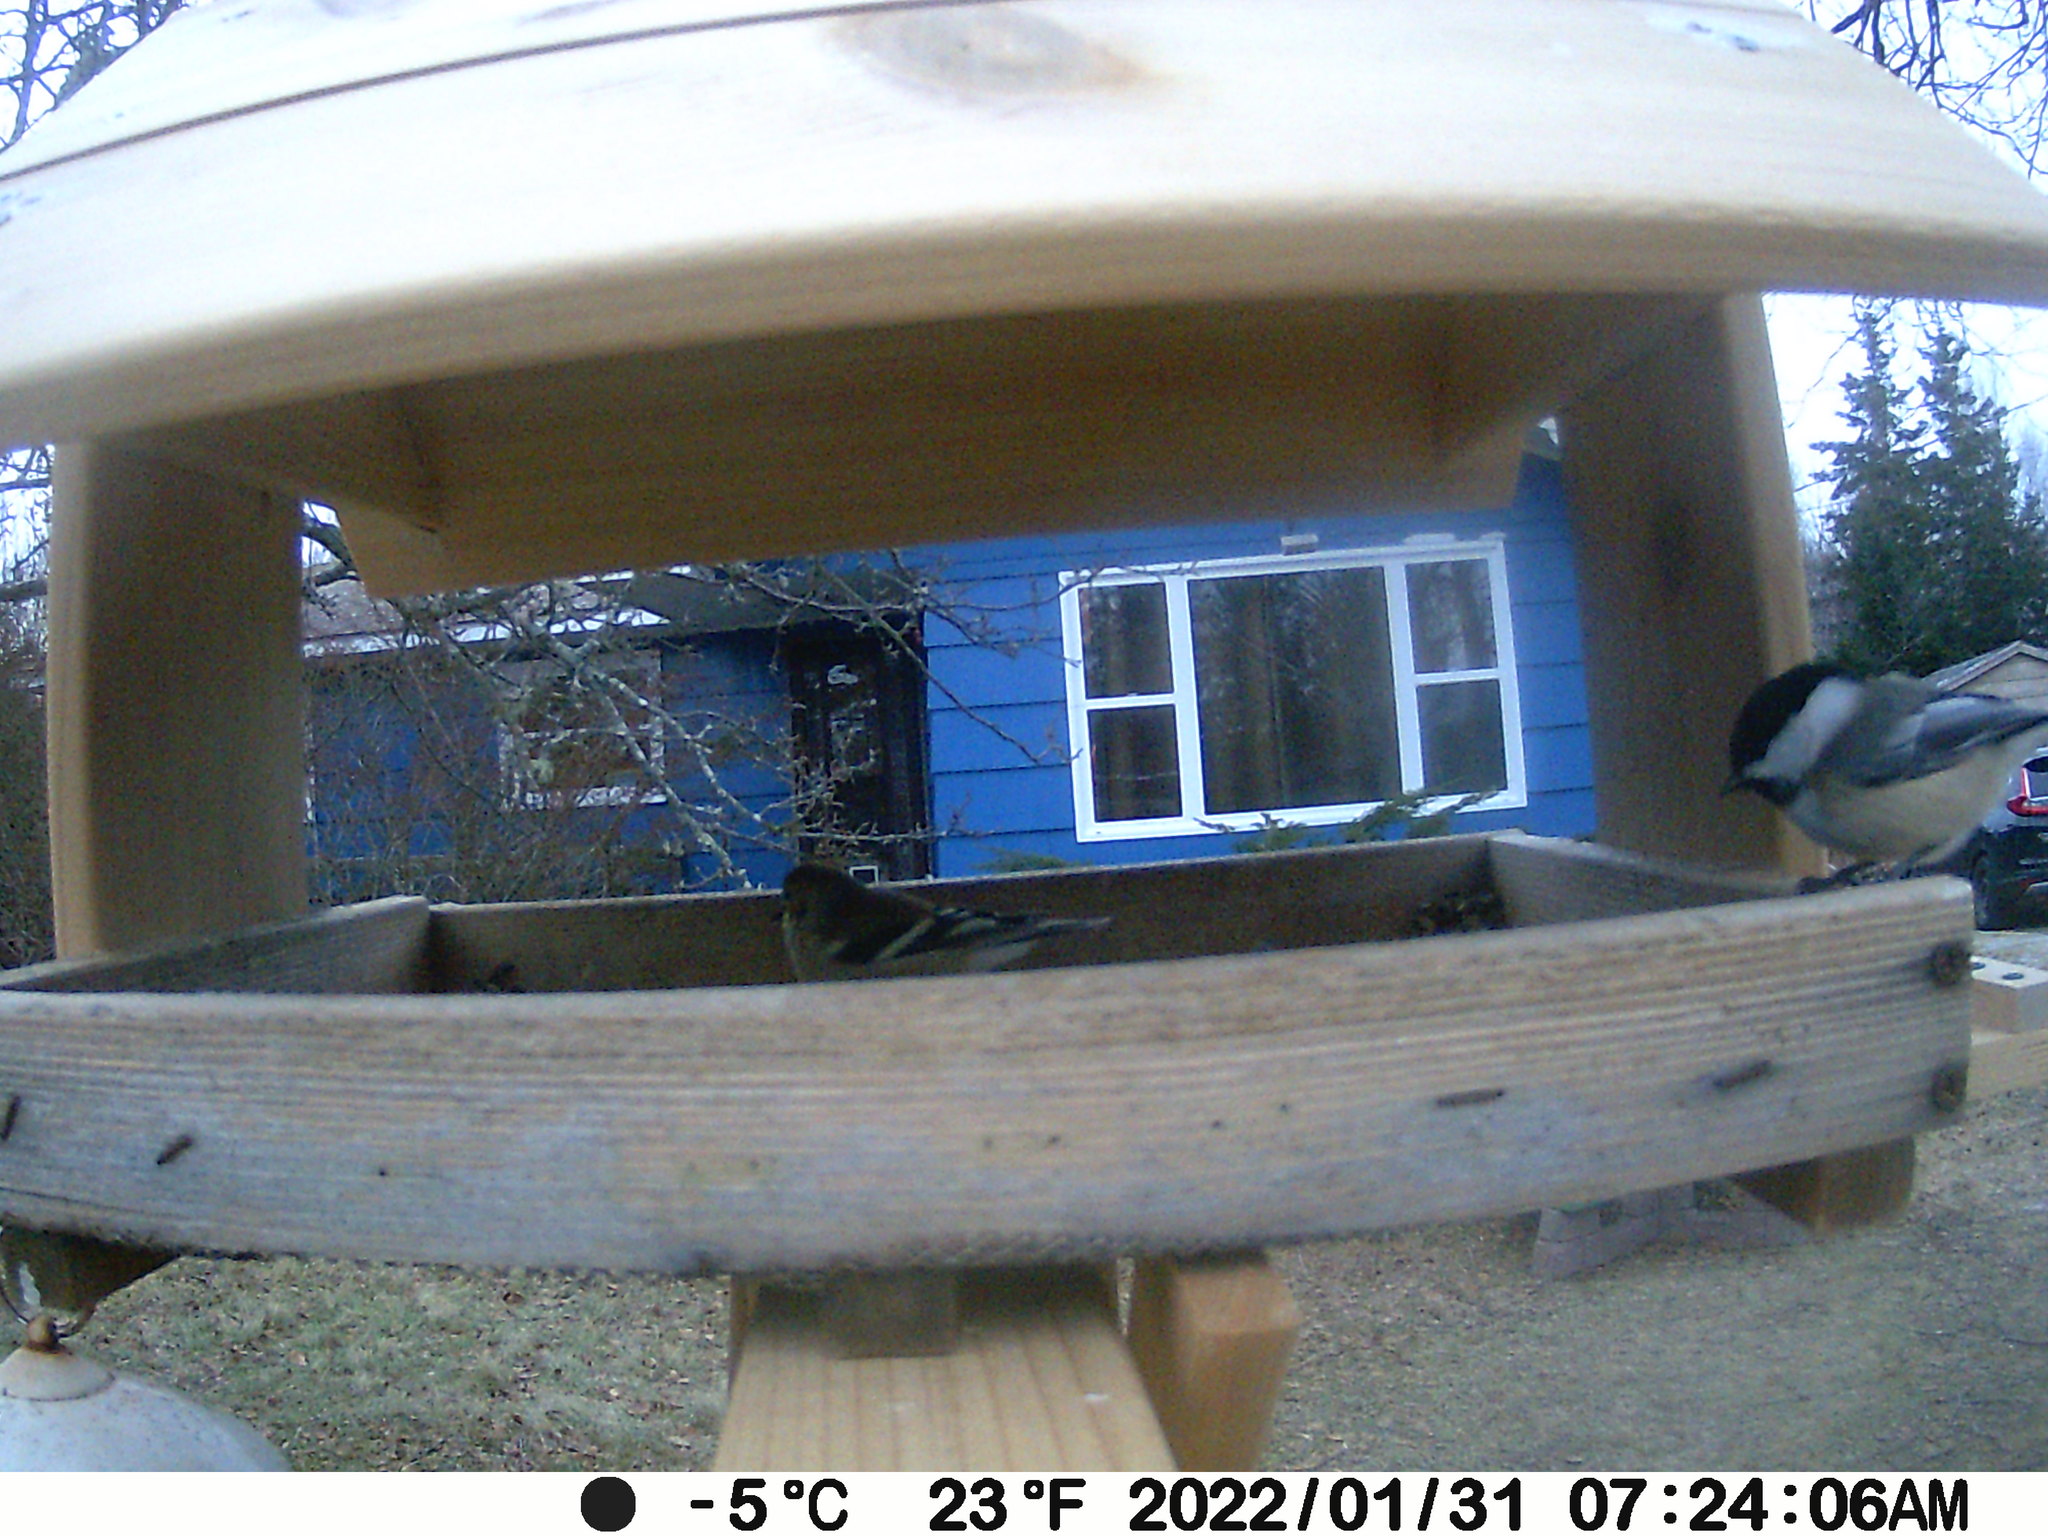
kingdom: Animalia
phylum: Chordata
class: Aves
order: Passeriformes
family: Paridae
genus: Poecile
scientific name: Poecile atricapillus
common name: Black-capped chickadee
